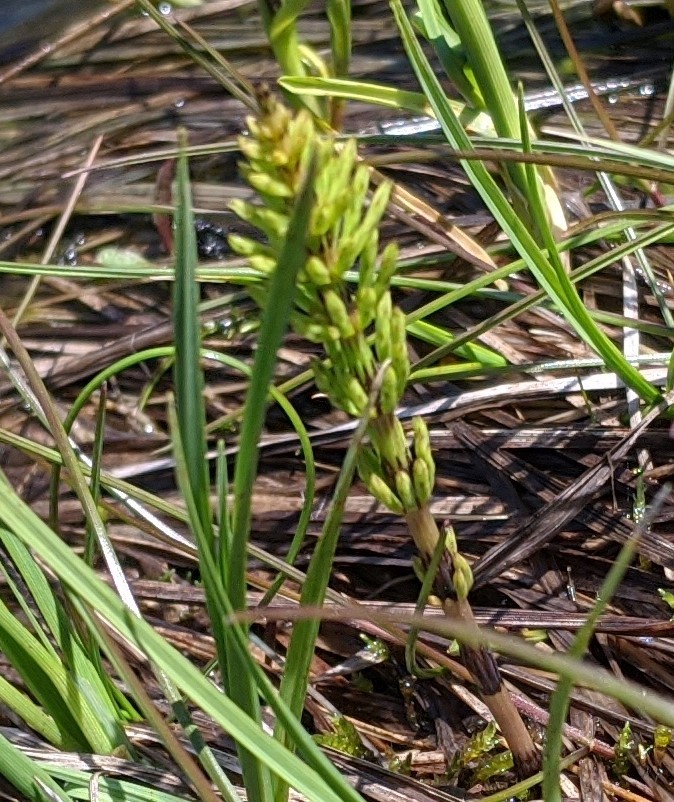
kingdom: Plantae
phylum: Tracheophyta
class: Polypodiopsida
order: Equisetales
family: Equisetaceae
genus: Equisetum
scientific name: Equisetum arvense
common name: Field horsetail
